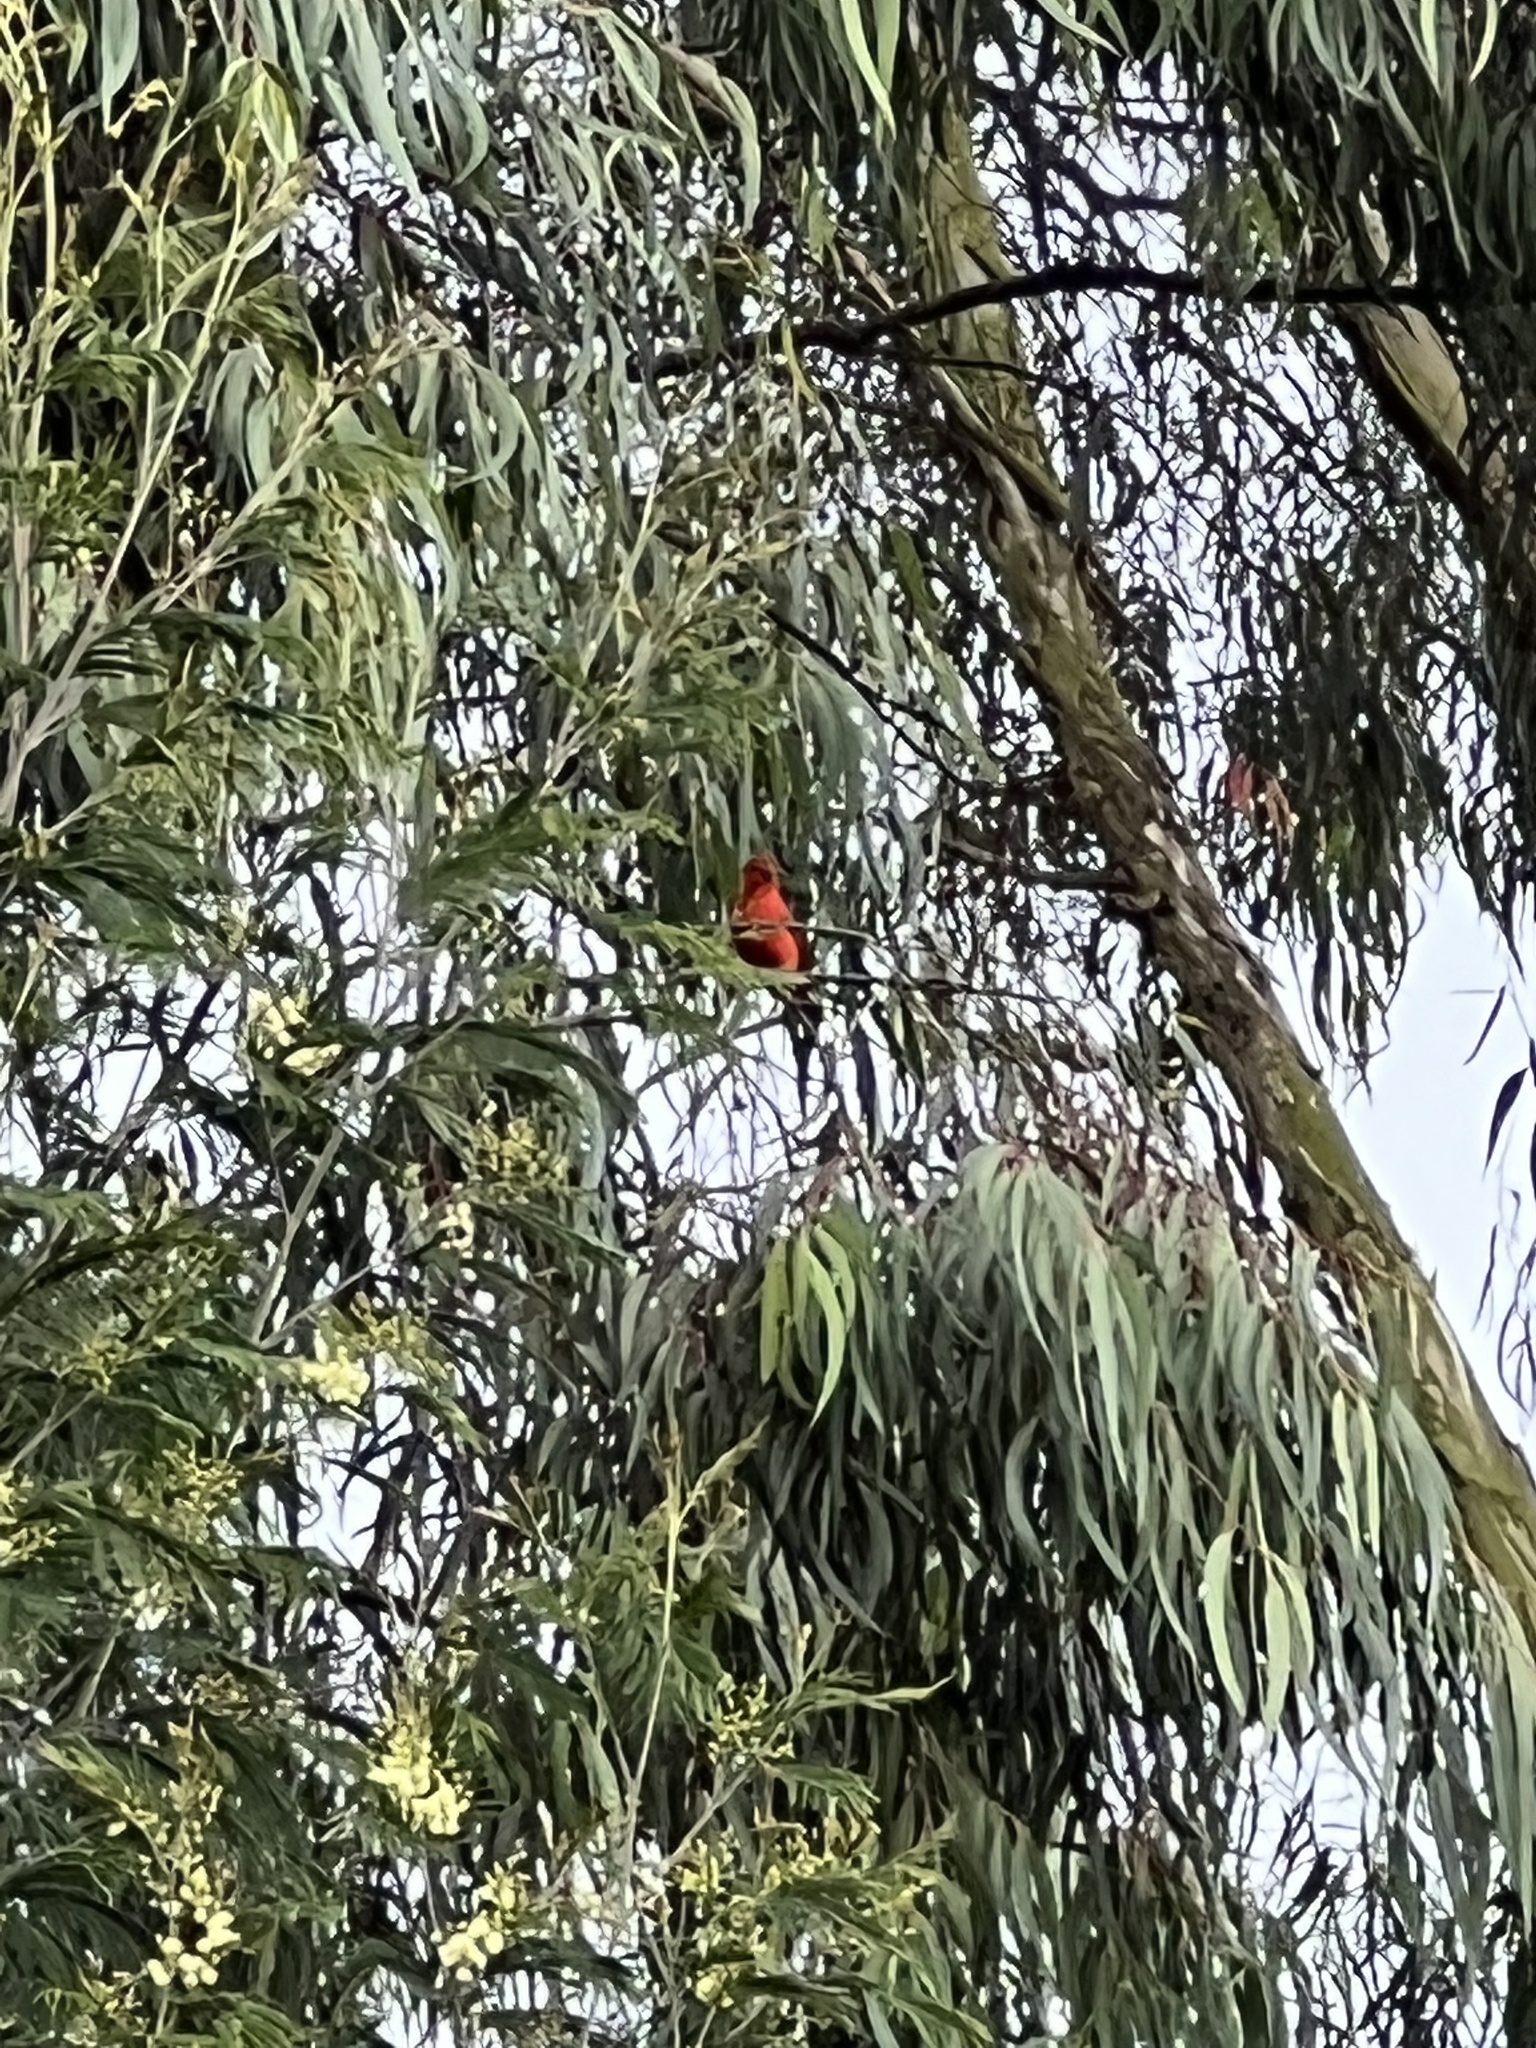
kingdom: Animalia
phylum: Chordata
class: Aves
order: Passeriformes
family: Cardinalidae
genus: Piranga
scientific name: Piranga rubra
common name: Summer tanager
